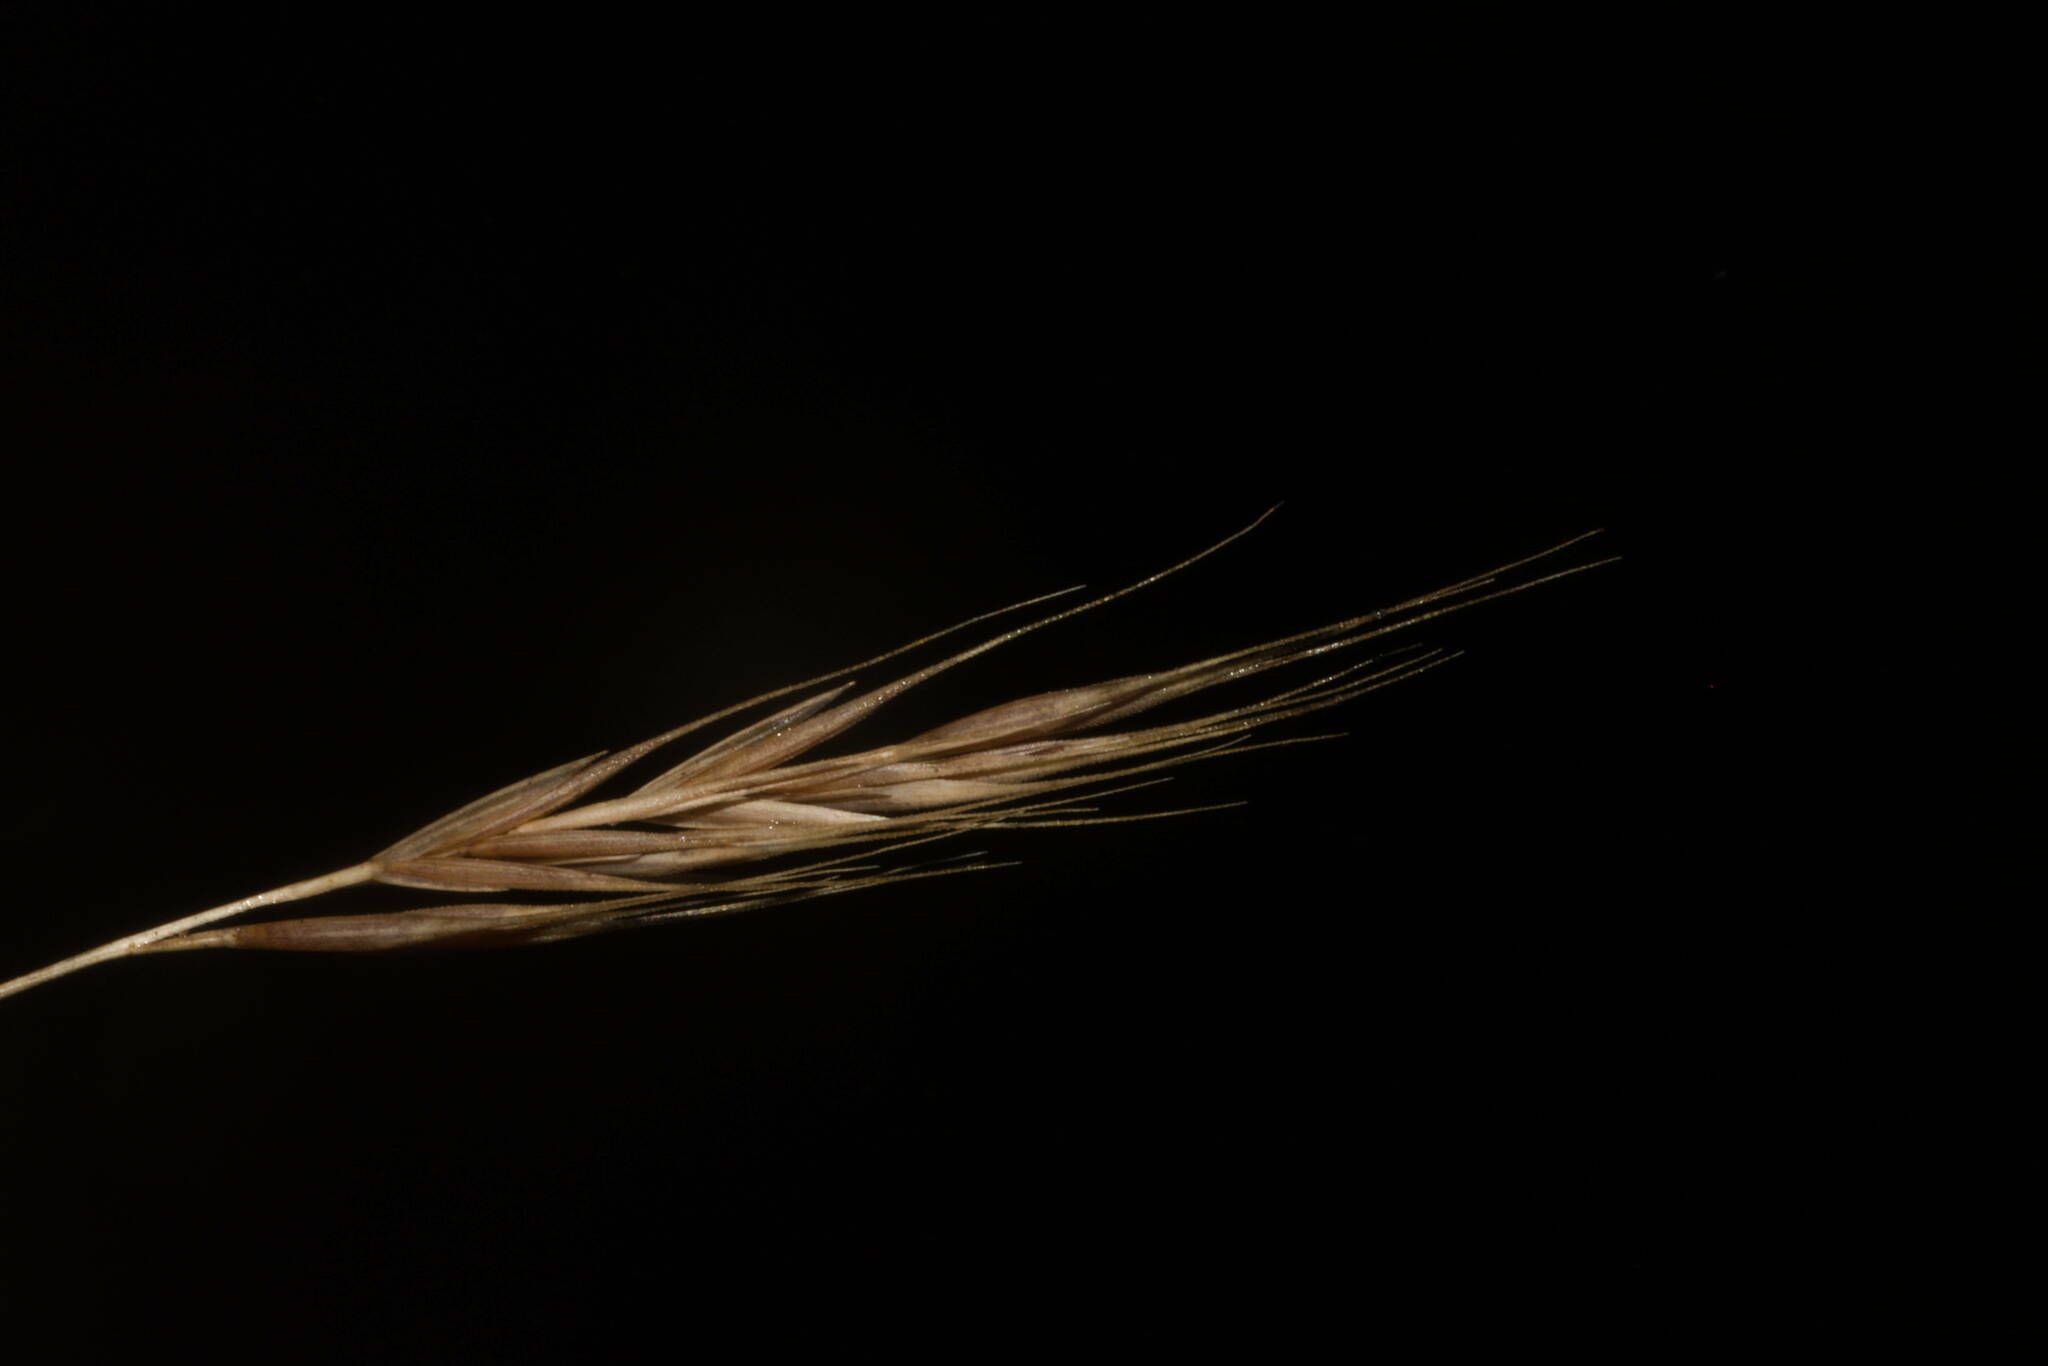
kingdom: Plantae
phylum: Tracheophyta
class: Liliopsida
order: Poales
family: Poaceae
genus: Festuca
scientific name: Festuca bromoides
